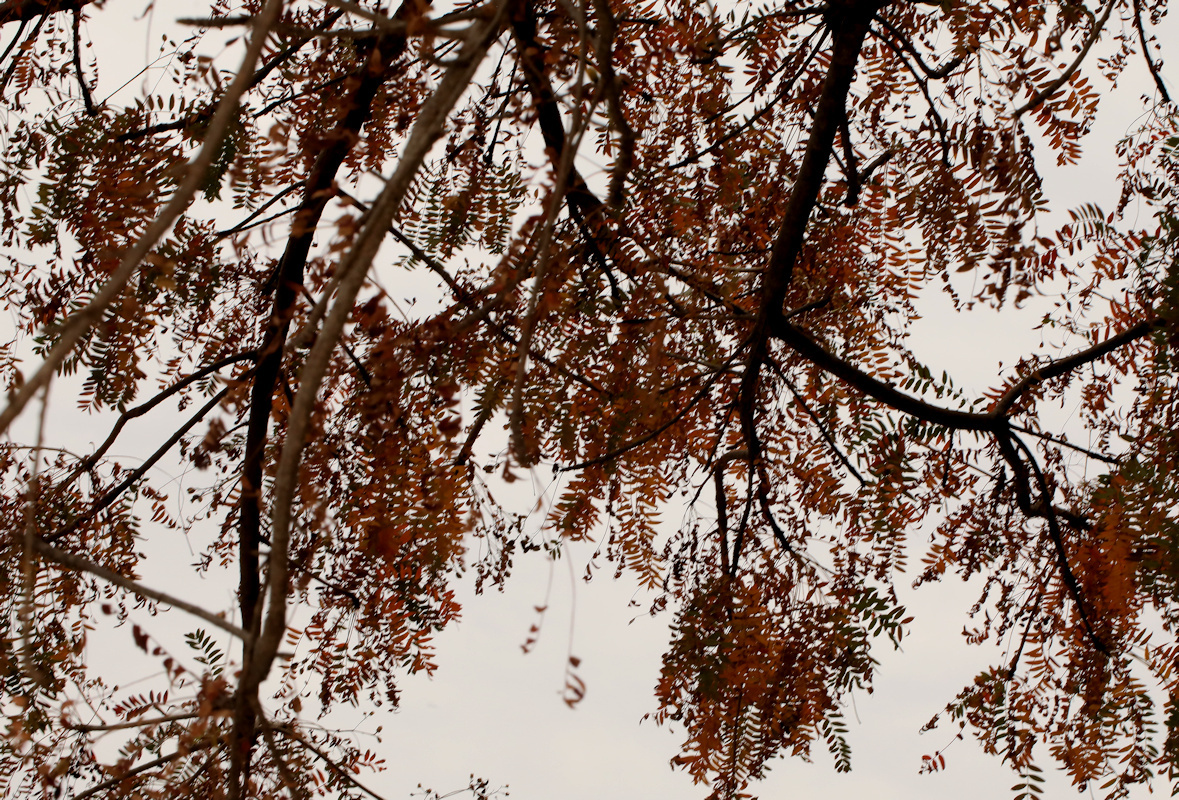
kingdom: Plantae
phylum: Tracheophyta
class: Magnoliopsida
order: Sapindales
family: Kirkiaceae
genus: Kirkia
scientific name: Kirkia wilmsii
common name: Mountain seringa
